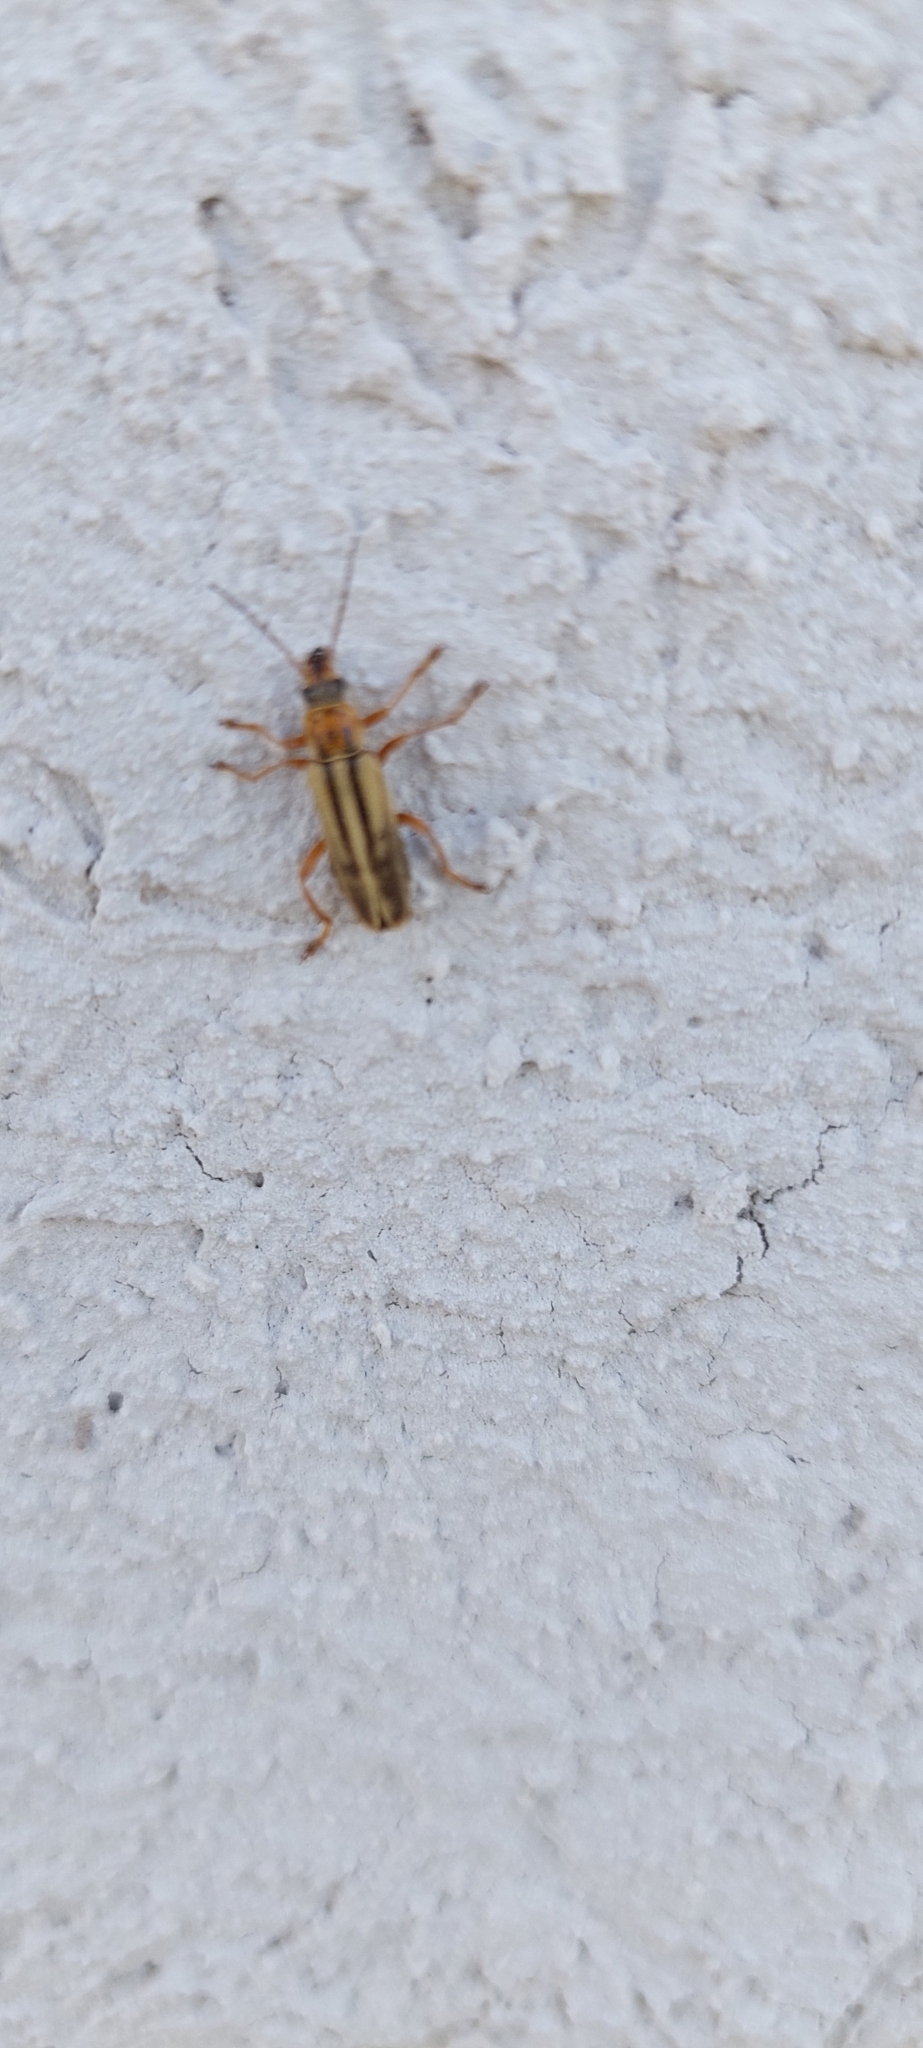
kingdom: Animalia
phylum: Arthropoda
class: Insecta
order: Coleoptera
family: Cantharidae
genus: Chauliognathus
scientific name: Chauliognathus
